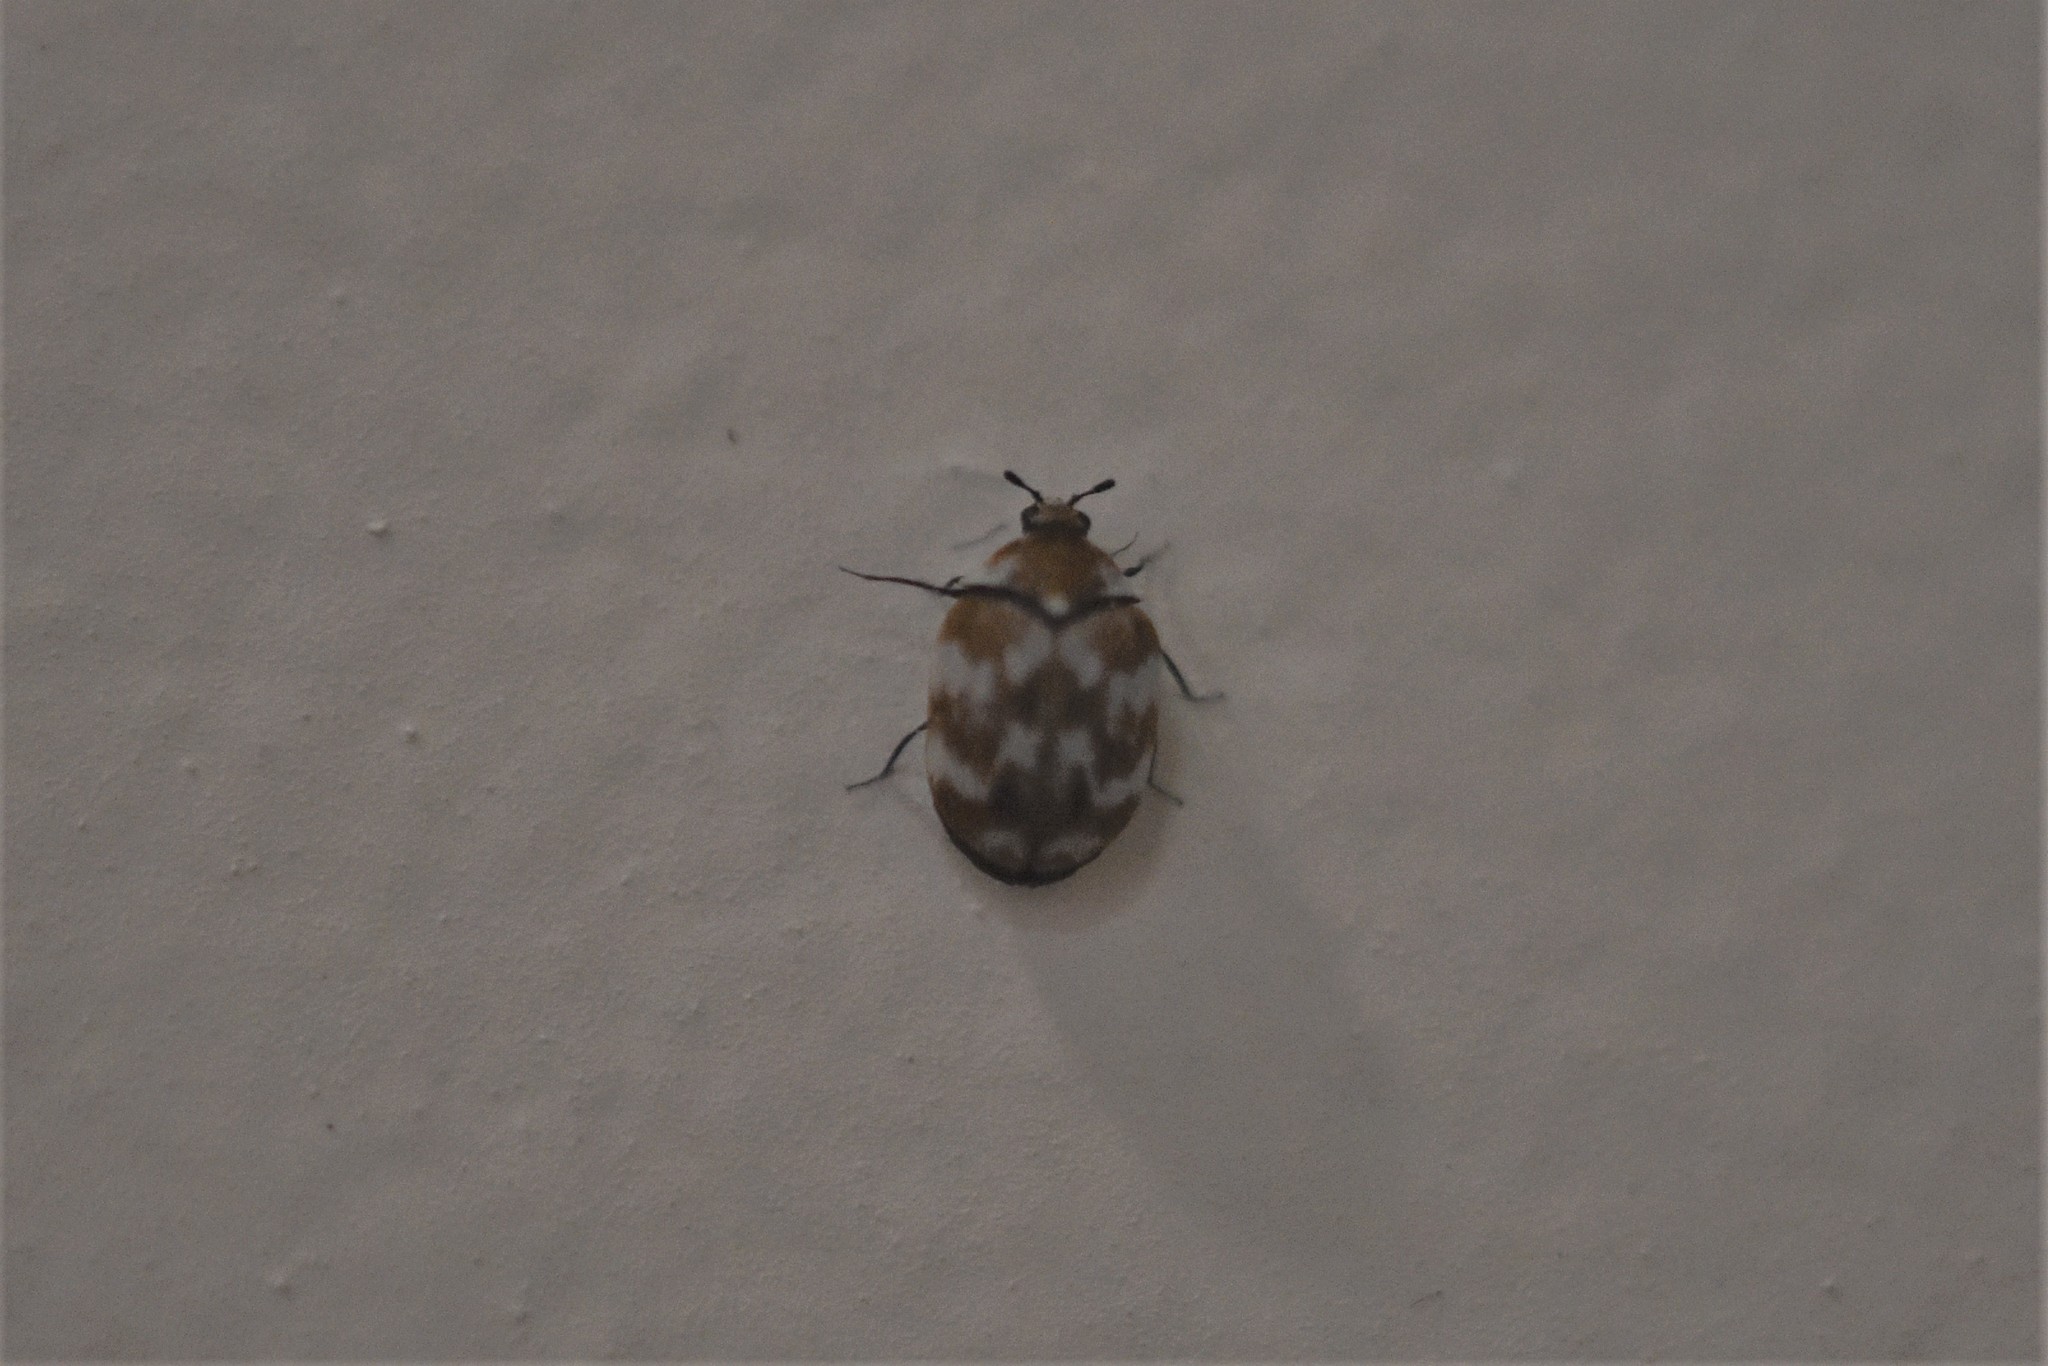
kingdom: Animalia
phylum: Arthropoda
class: Insecta
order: Coleoptera
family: Dermestidae
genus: Anthrenus
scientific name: Anthrenus verbasci
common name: Varied carpet beetle
